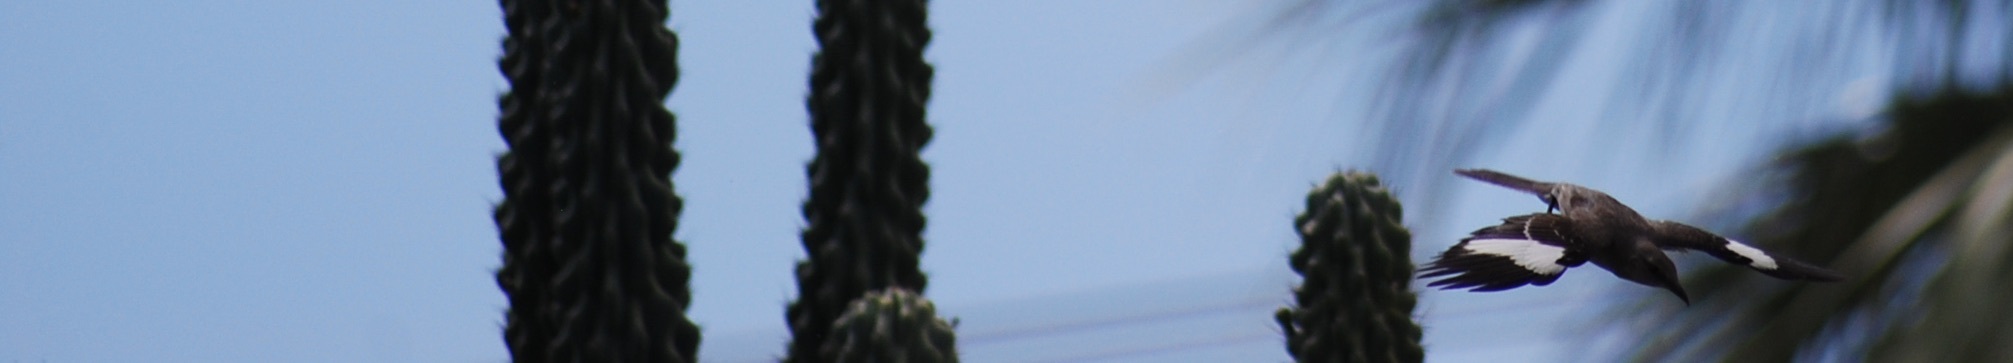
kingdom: Animalia
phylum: Chordata
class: Aves
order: Passeriformes
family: Mimidae
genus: Mimus
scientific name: Mimus polyglottos
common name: Northern mockingbird
